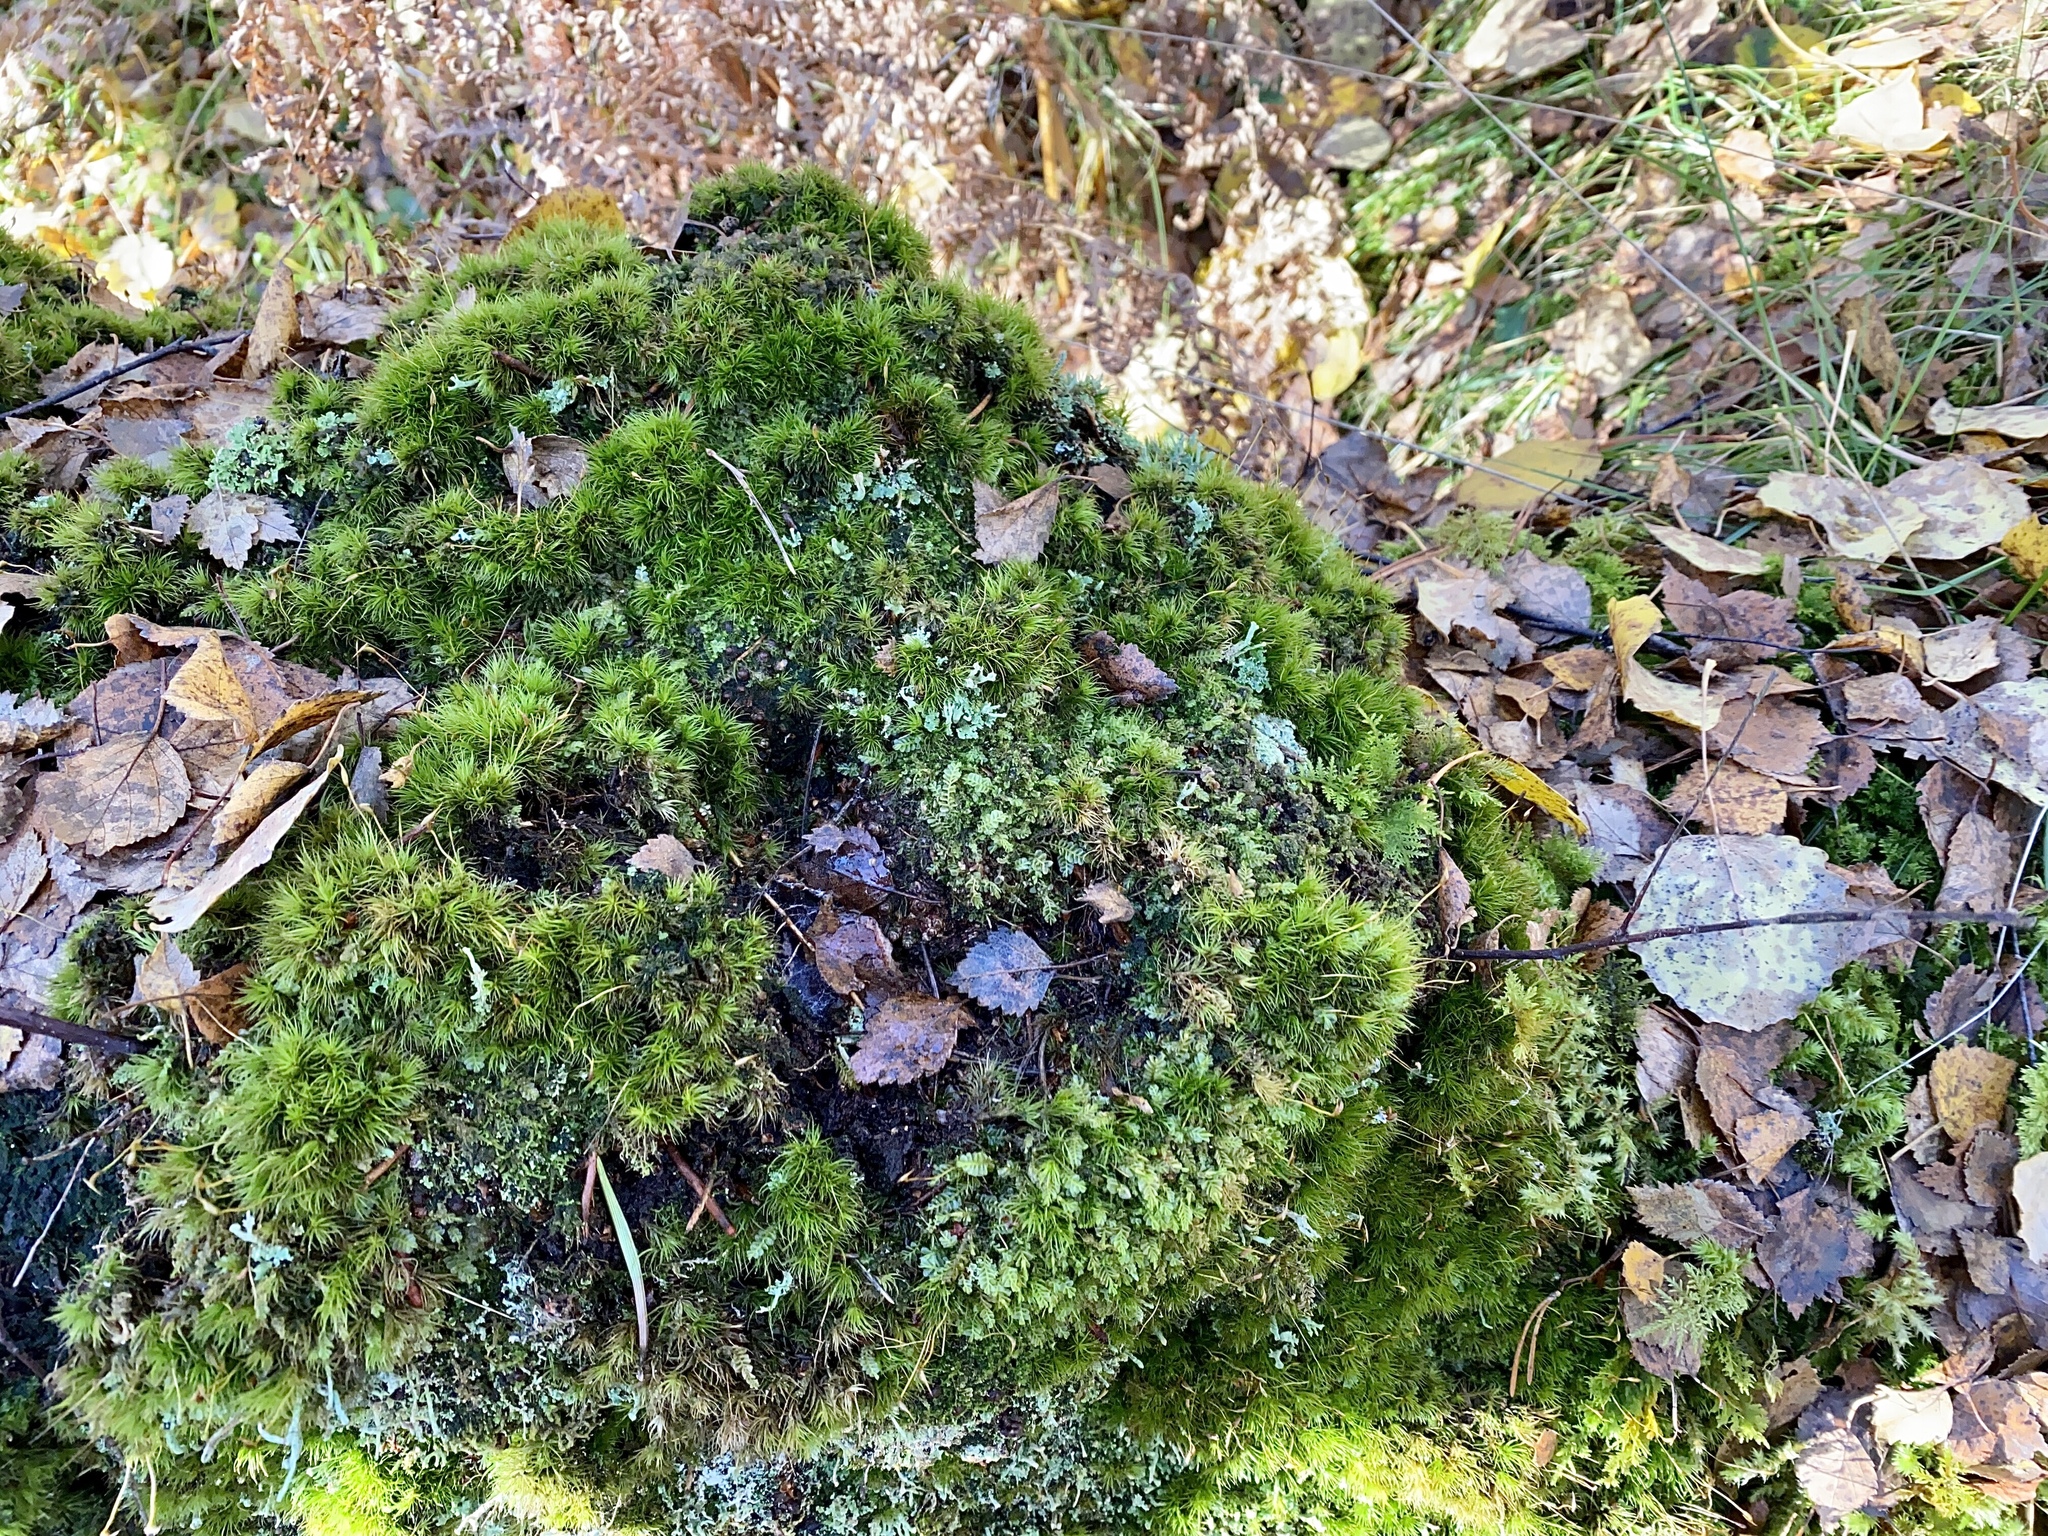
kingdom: Plantae
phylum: Marchantiophyta
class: Jungermanniopsida
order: Jungermanniales
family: Plagiochilaceae
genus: Plagiochila
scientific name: Plagiochila porelloides
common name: Lesser featherwort
